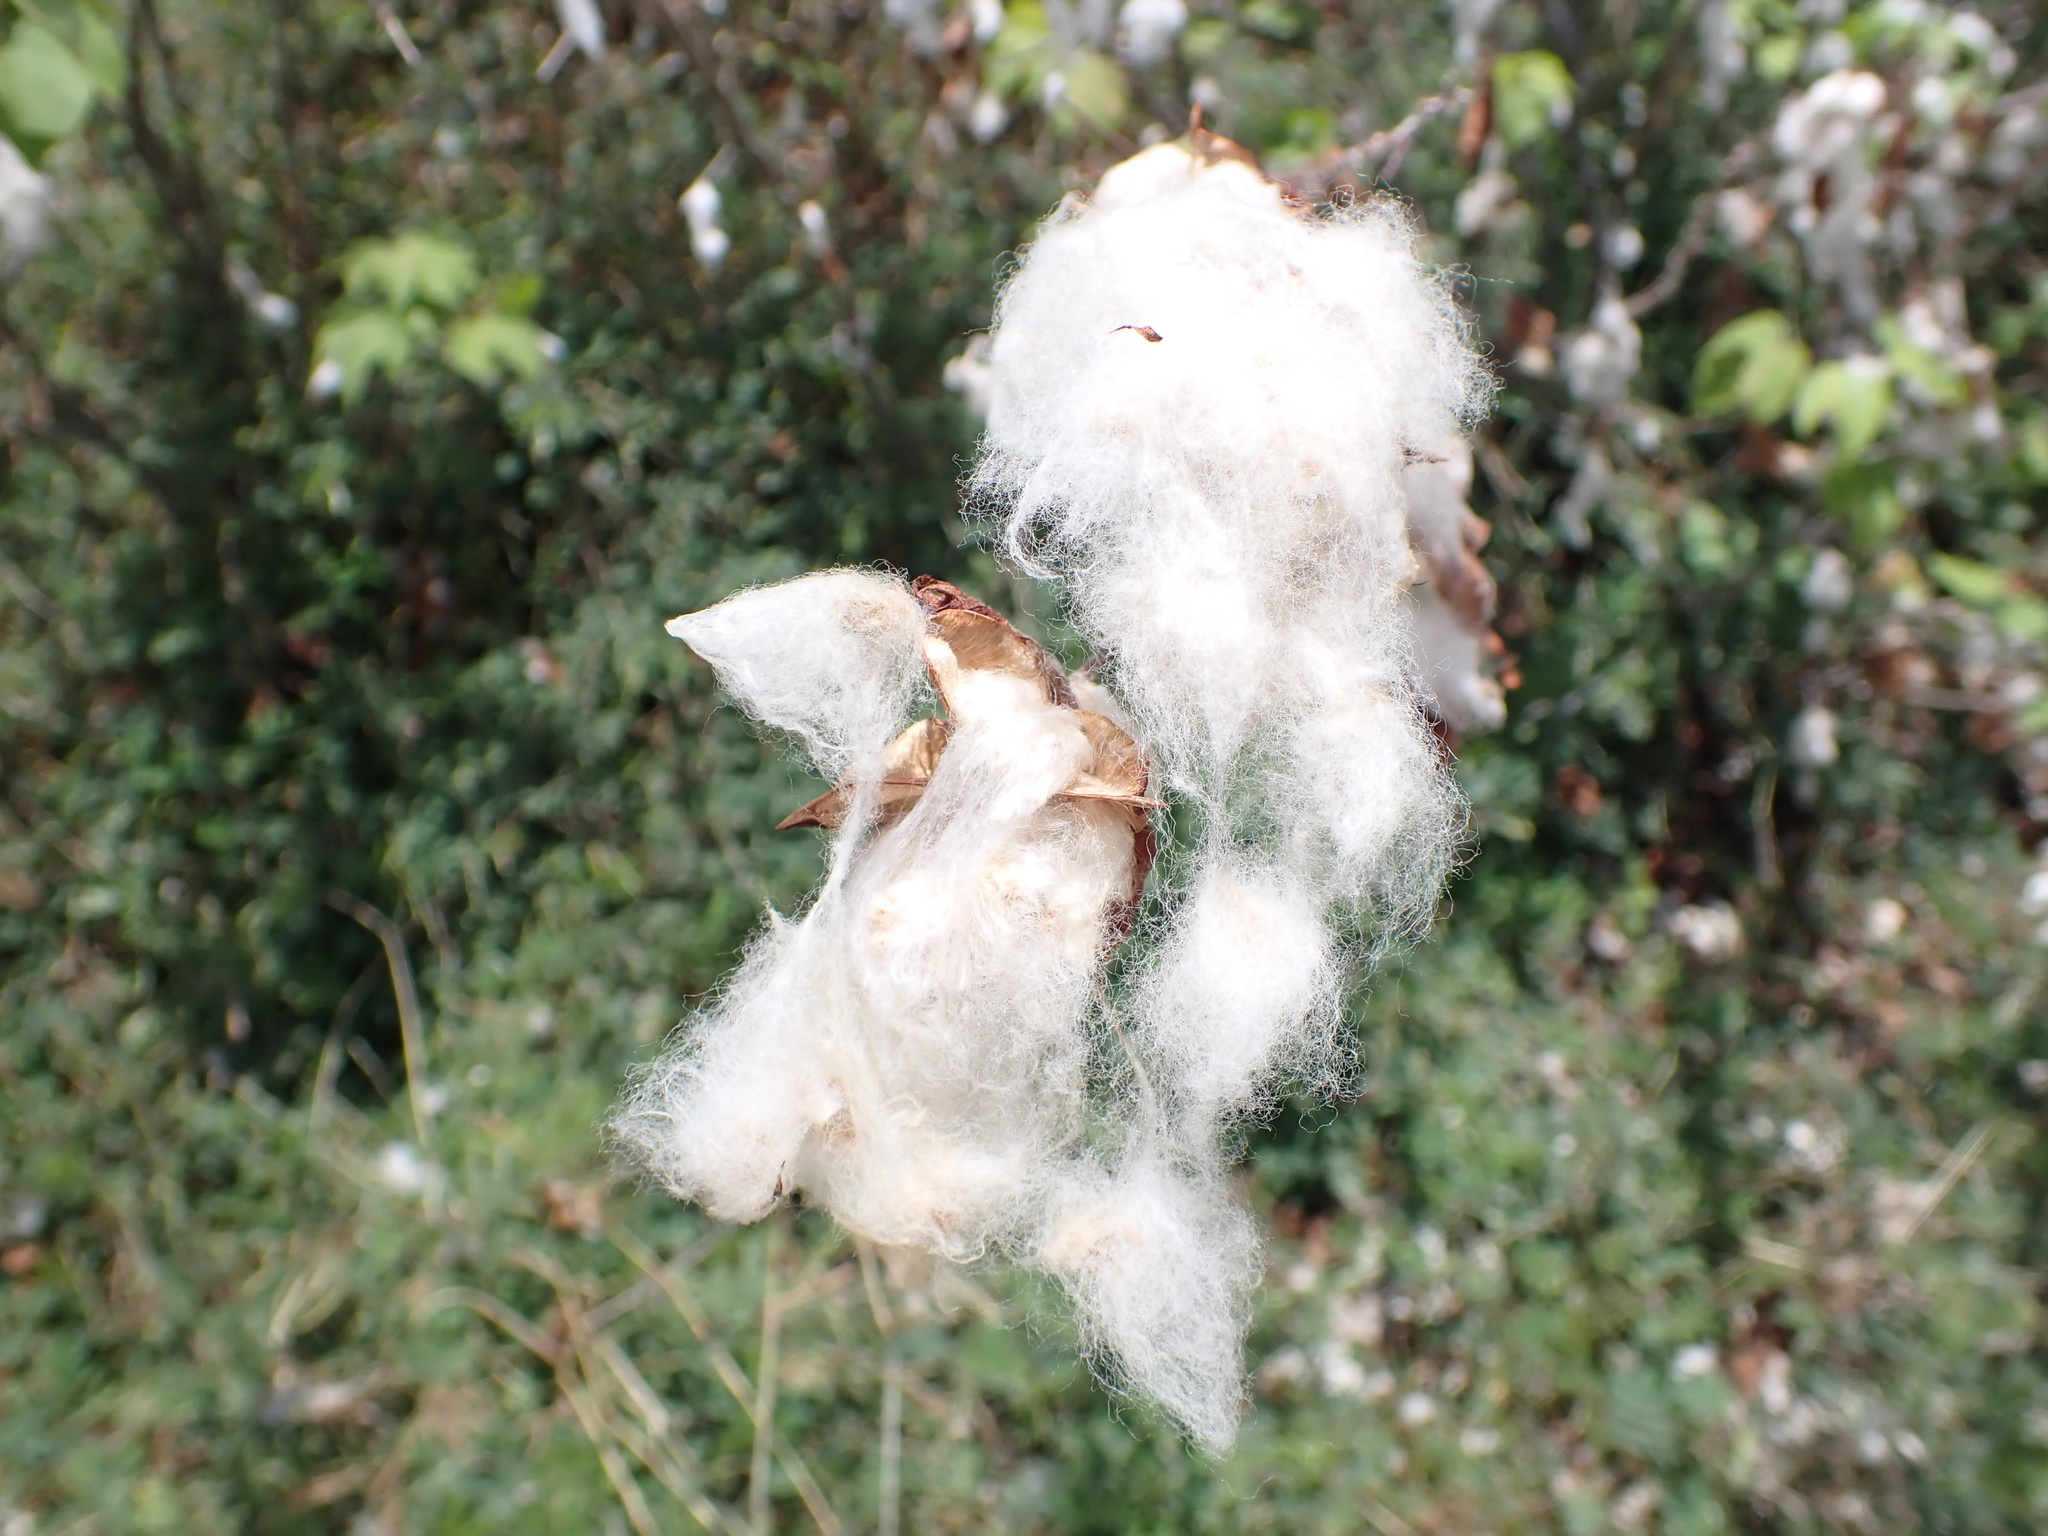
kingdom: Plantae
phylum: Tracheophyta
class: Magnoliopsida
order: Malvales
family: Malvaceae
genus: Gossypium
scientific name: Gossypium hirsutum
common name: Cotton
